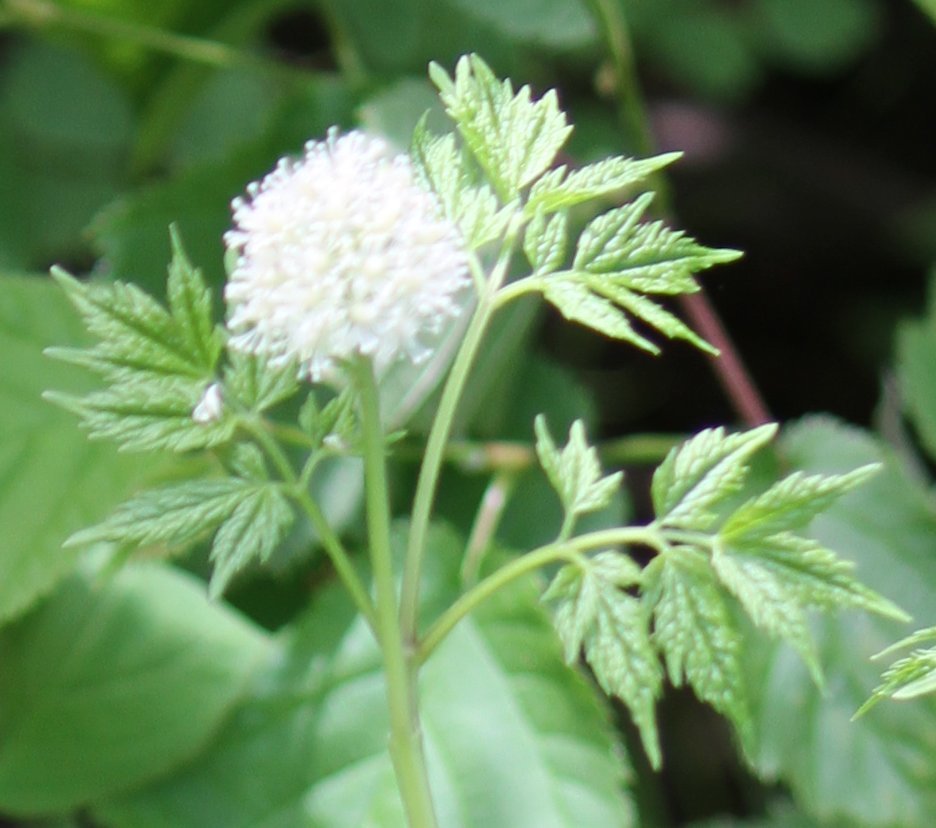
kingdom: Plantae
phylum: Tracheophyta
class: Magnoliopsida
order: Ranunculales
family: Ranunculaceae
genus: Actaea
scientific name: Actaea rubra
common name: Red baneberry
